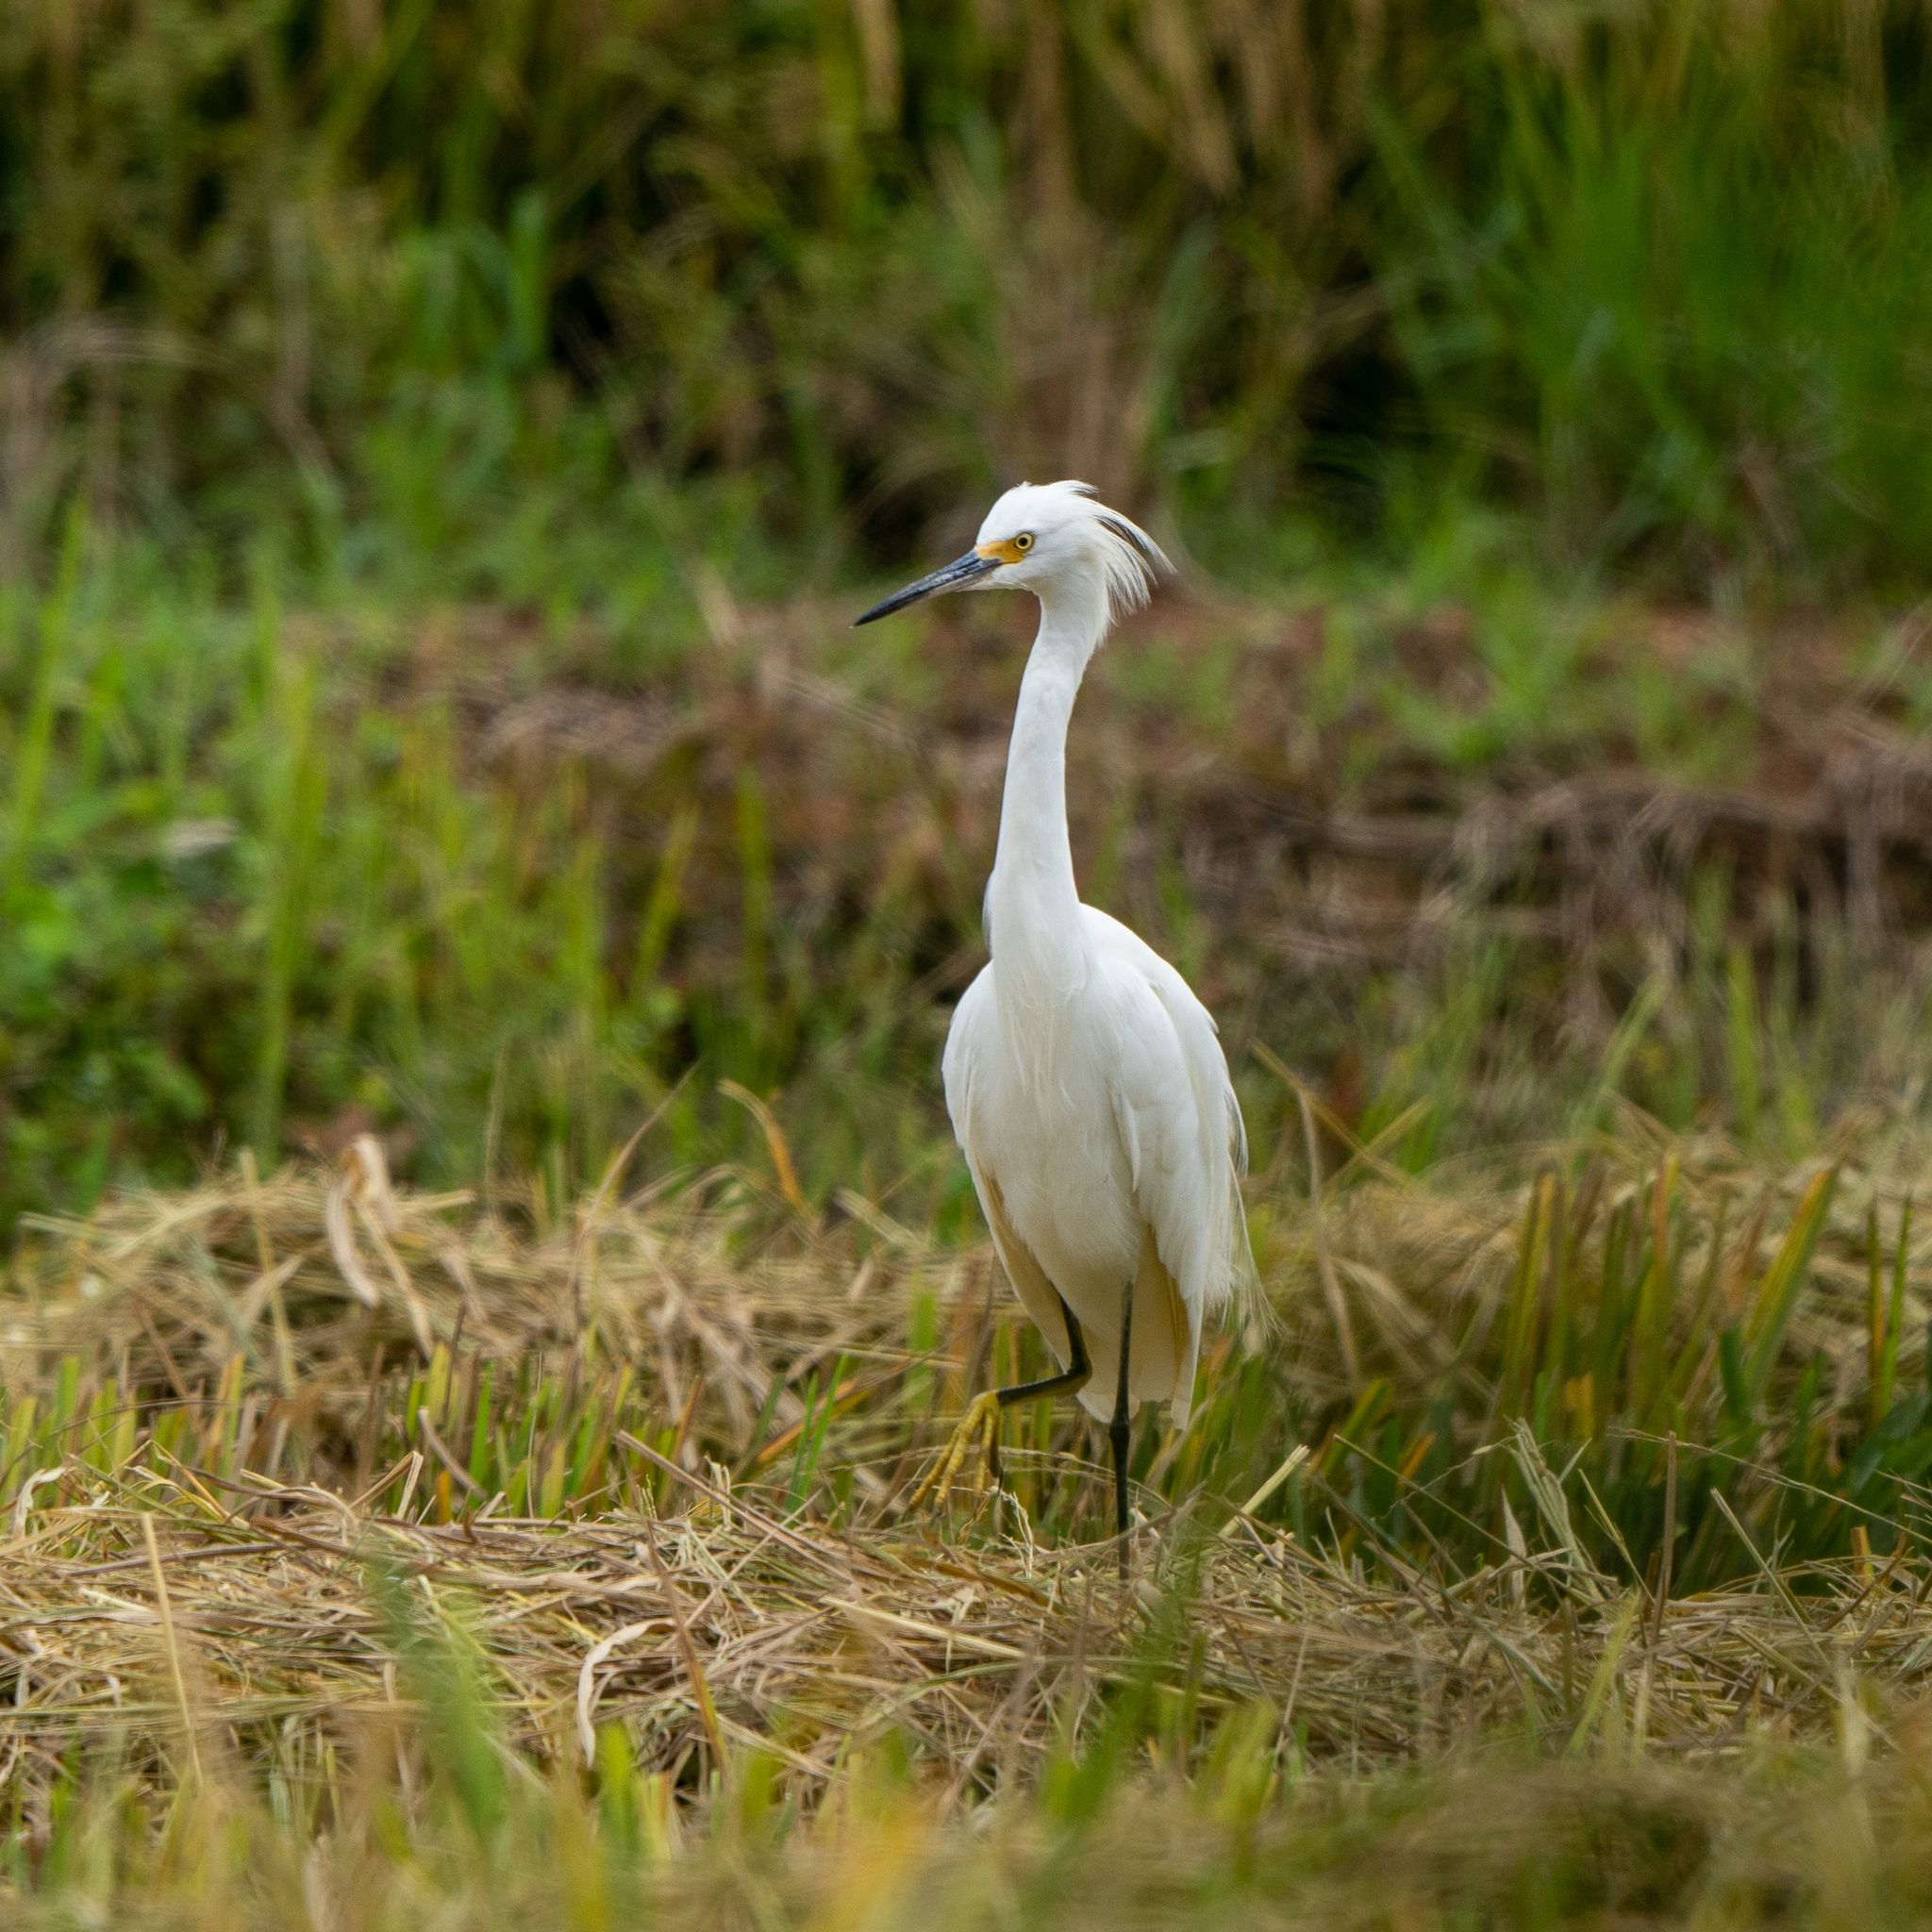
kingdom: Animalia
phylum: Chordata
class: Aves
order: Pelecaniformes
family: Ardeidae
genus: Egretta
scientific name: Egretta thula
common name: Snowy egret
